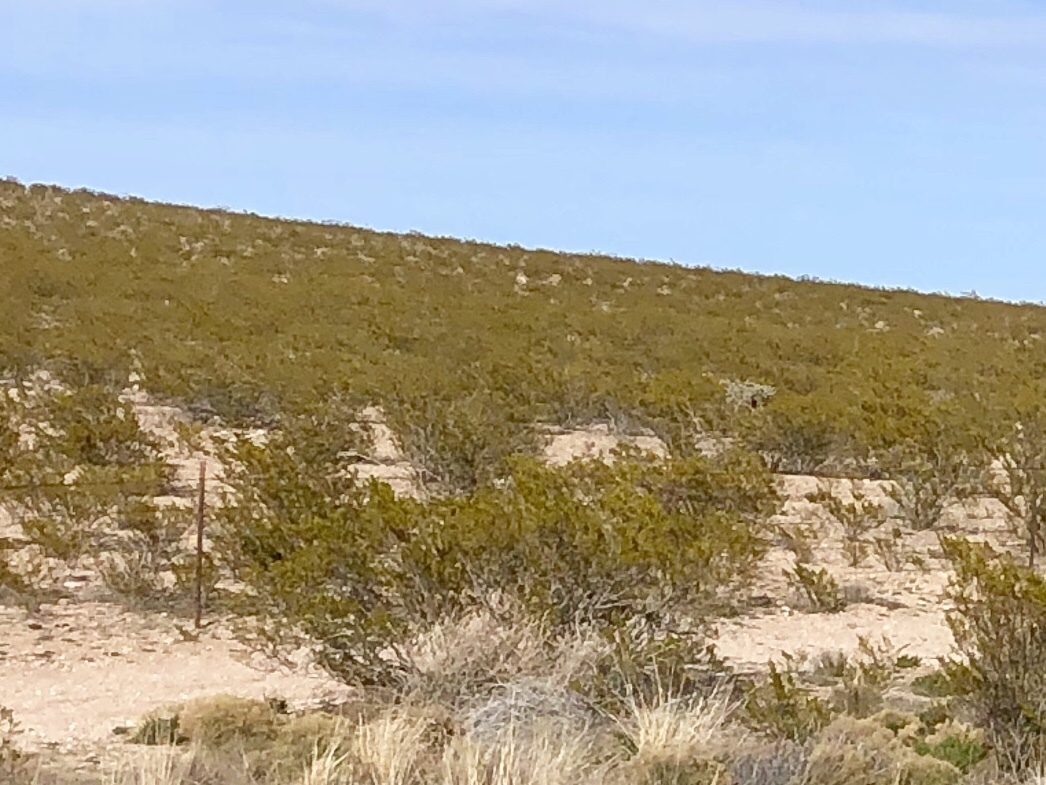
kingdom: Plantae
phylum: Tracheophyta
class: Magnoliopsida
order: Zygophyllales
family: Zygophyllaceae
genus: Larrea
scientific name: Larrea tridentata
